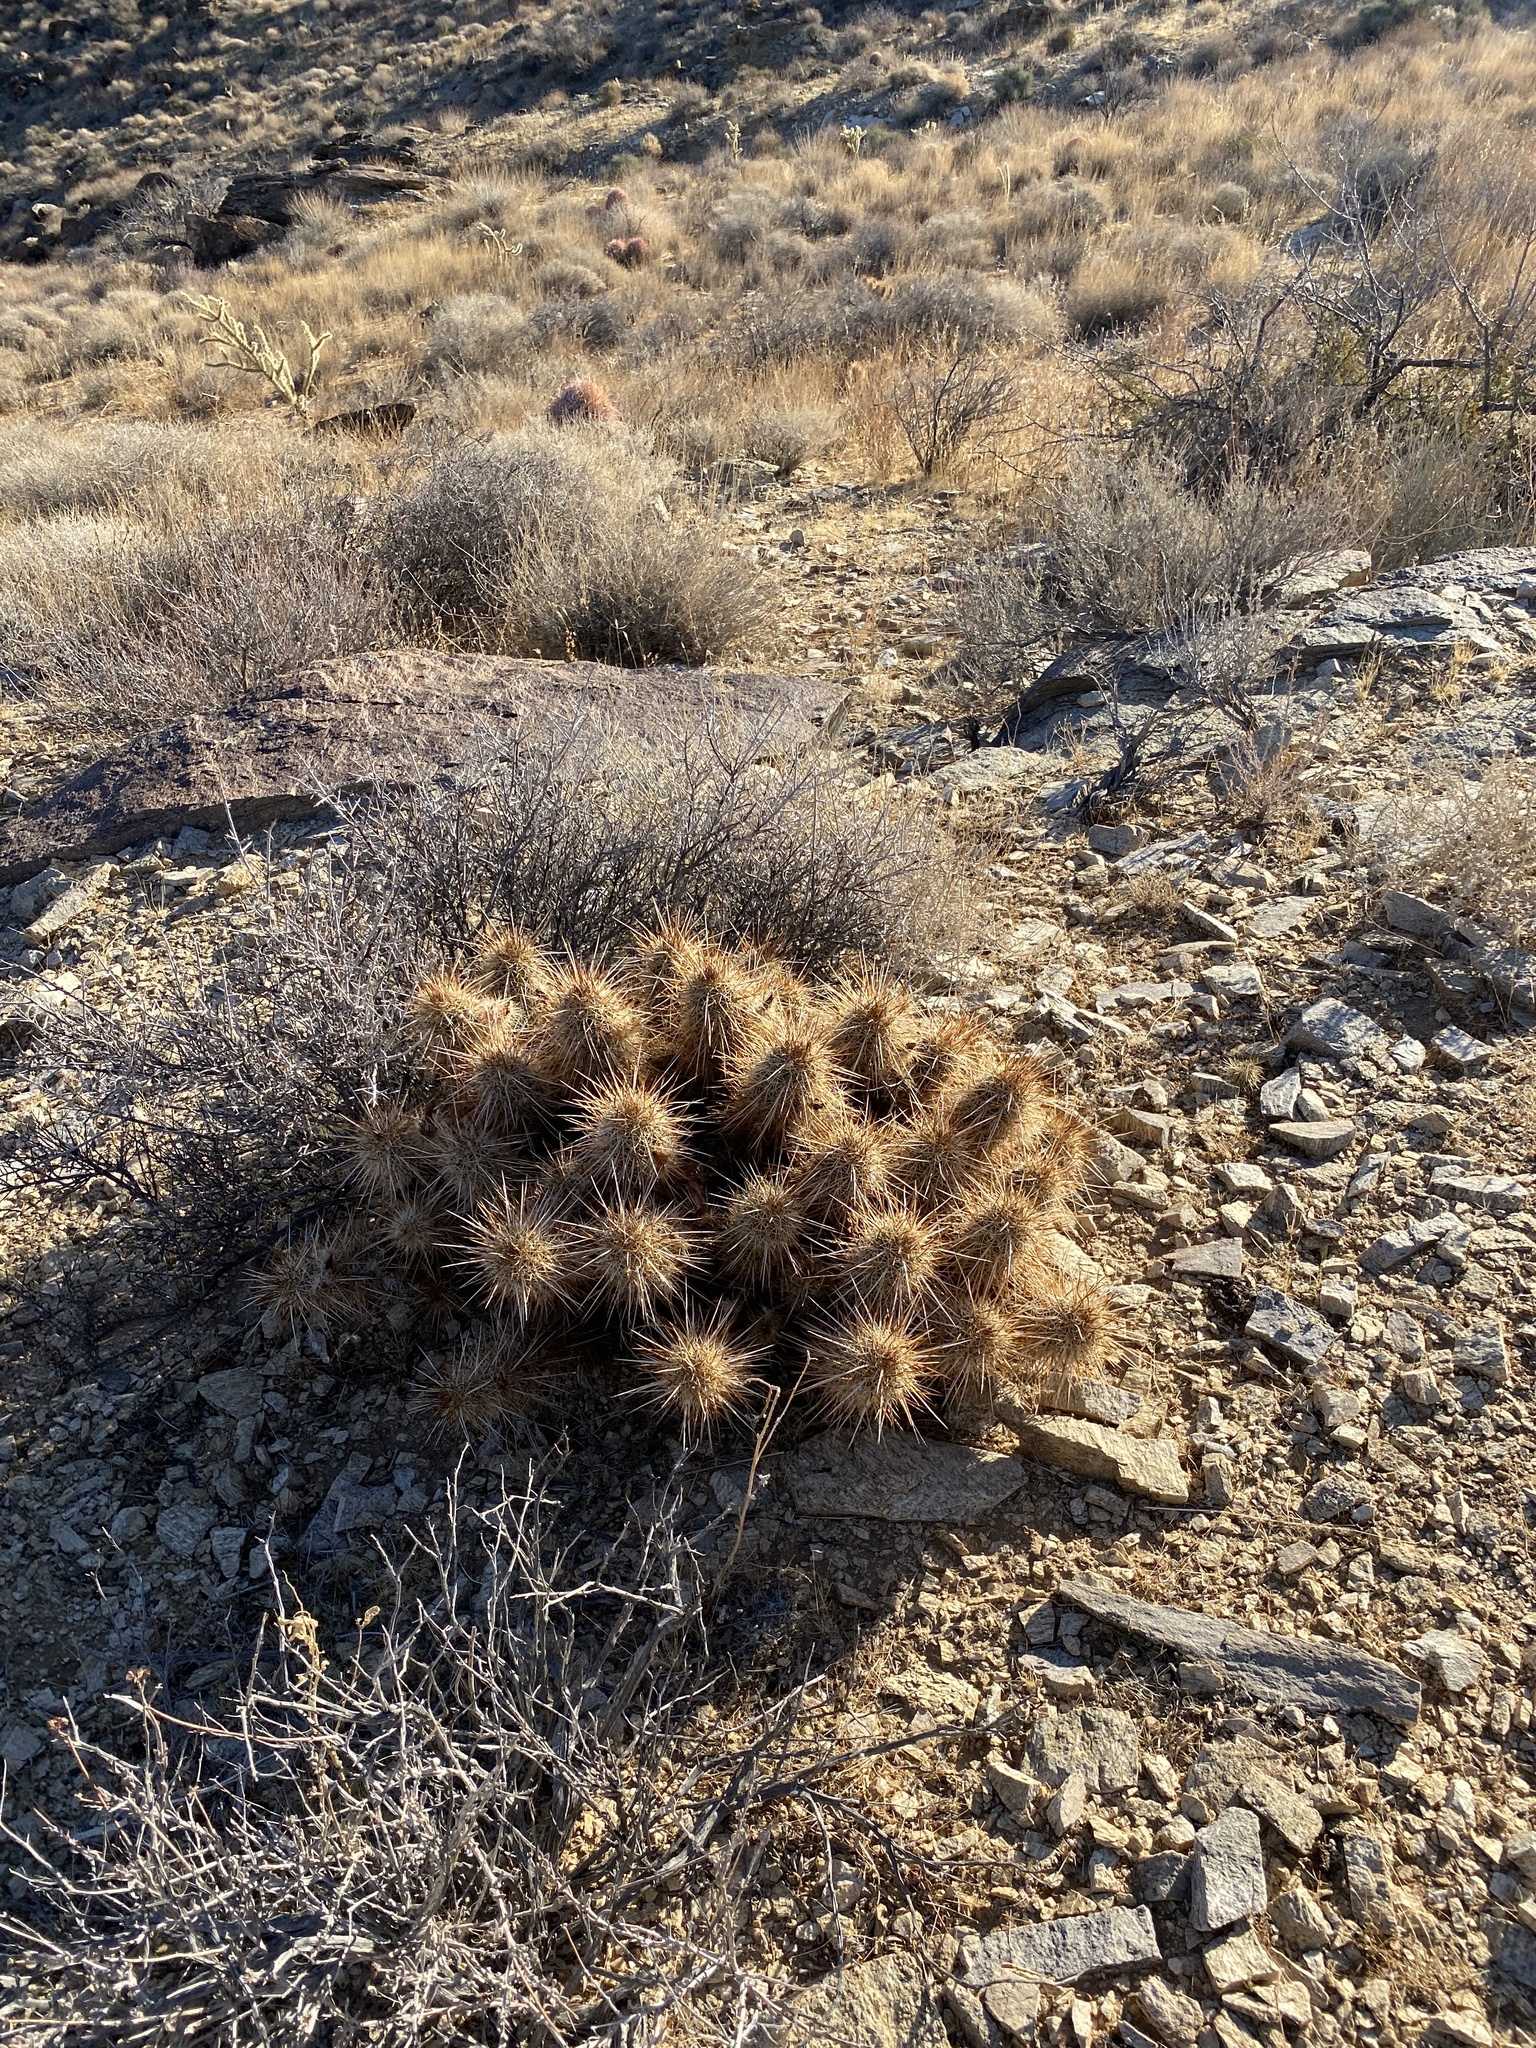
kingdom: Plantae
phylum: Tracheophyta
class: Magnoliopsida
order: Caryophyllales
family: Cactaceae
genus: Echinocereus
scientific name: Echinocereus engelmannii
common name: Engelmann's hedgehog cactus
